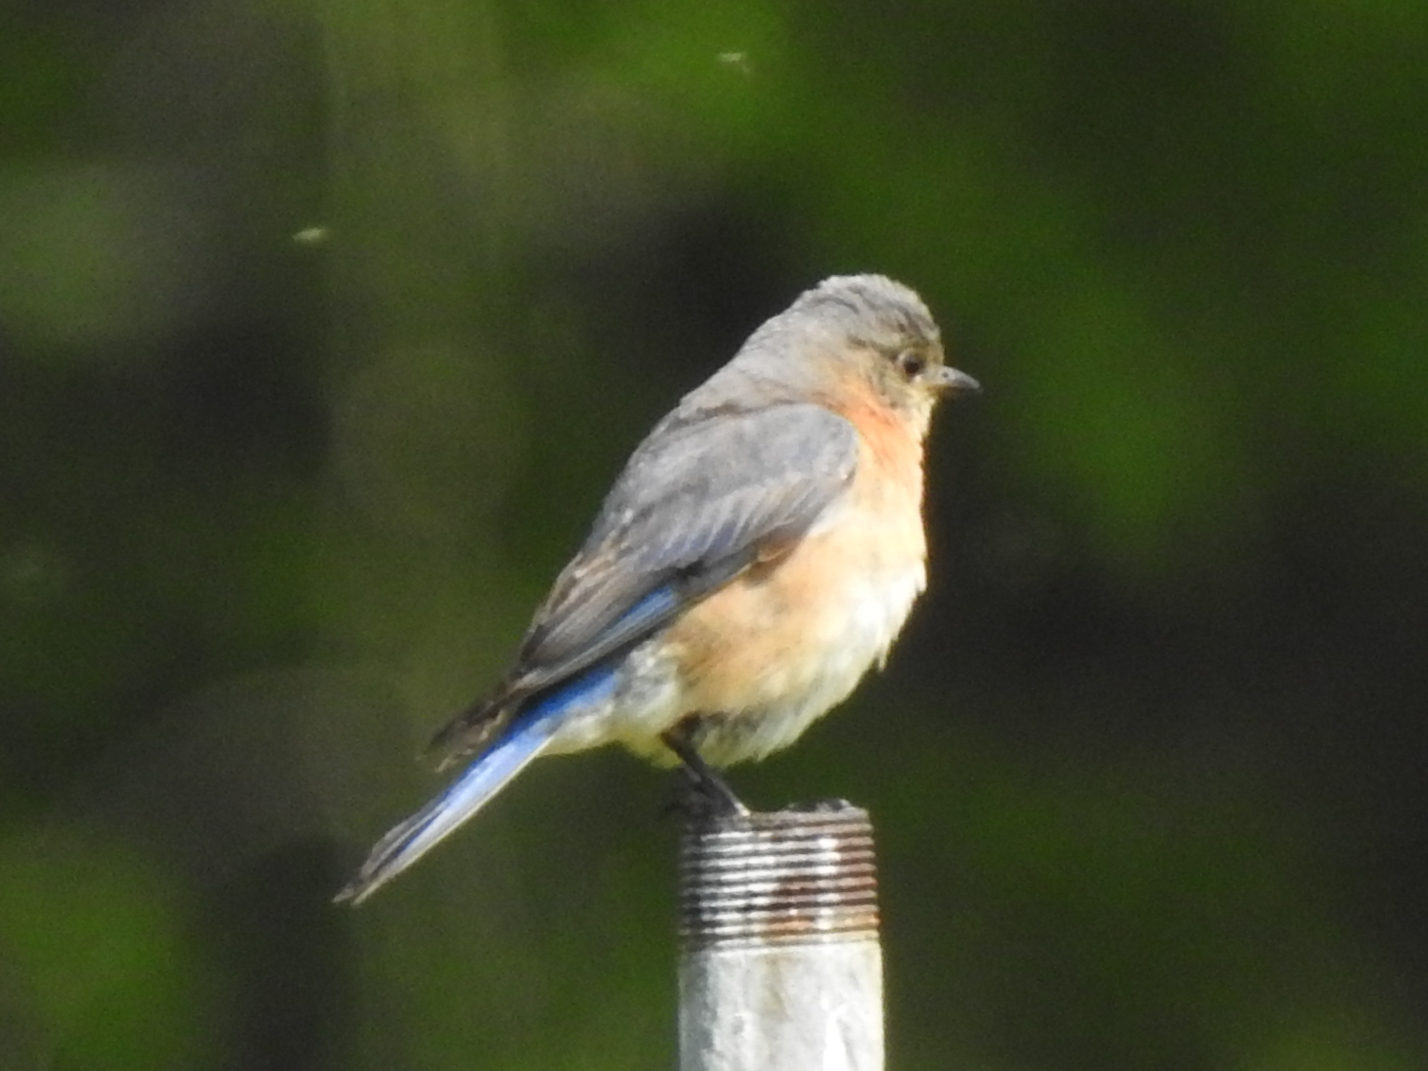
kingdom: Animalia
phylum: Chordata
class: Aves
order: Passeriformes
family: Turdidae
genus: Sialia
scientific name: Sialia sialis
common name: Eastern bluebird
